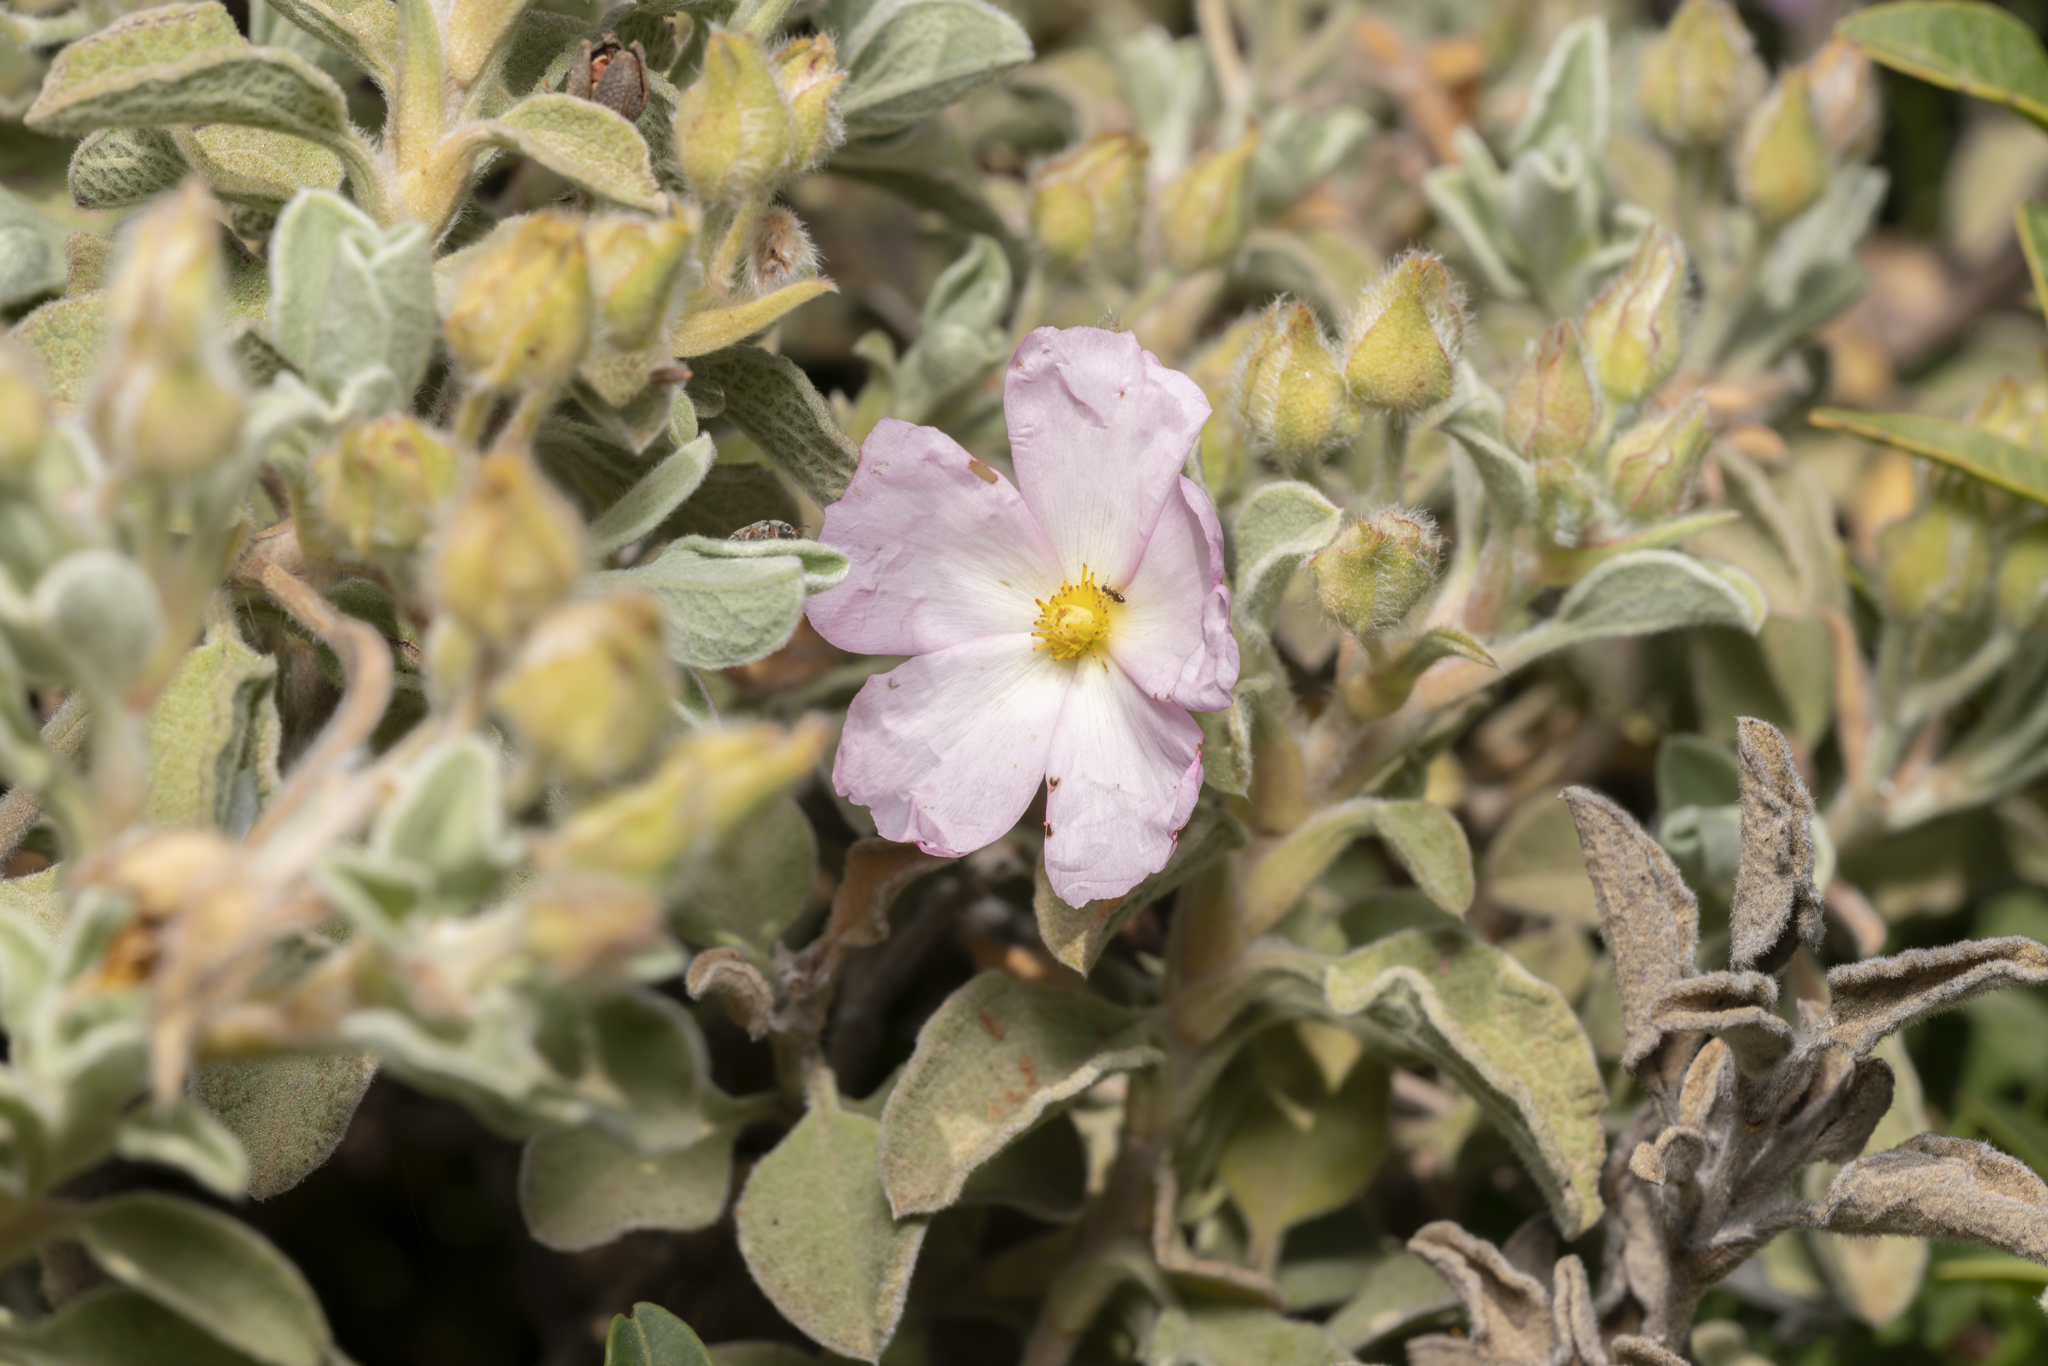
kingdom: Plantae
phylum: Tracheophyta
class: Magnoliopsida
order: Malvales
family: Cistaceae
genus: Cistus
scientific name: Cistus parviflorus
